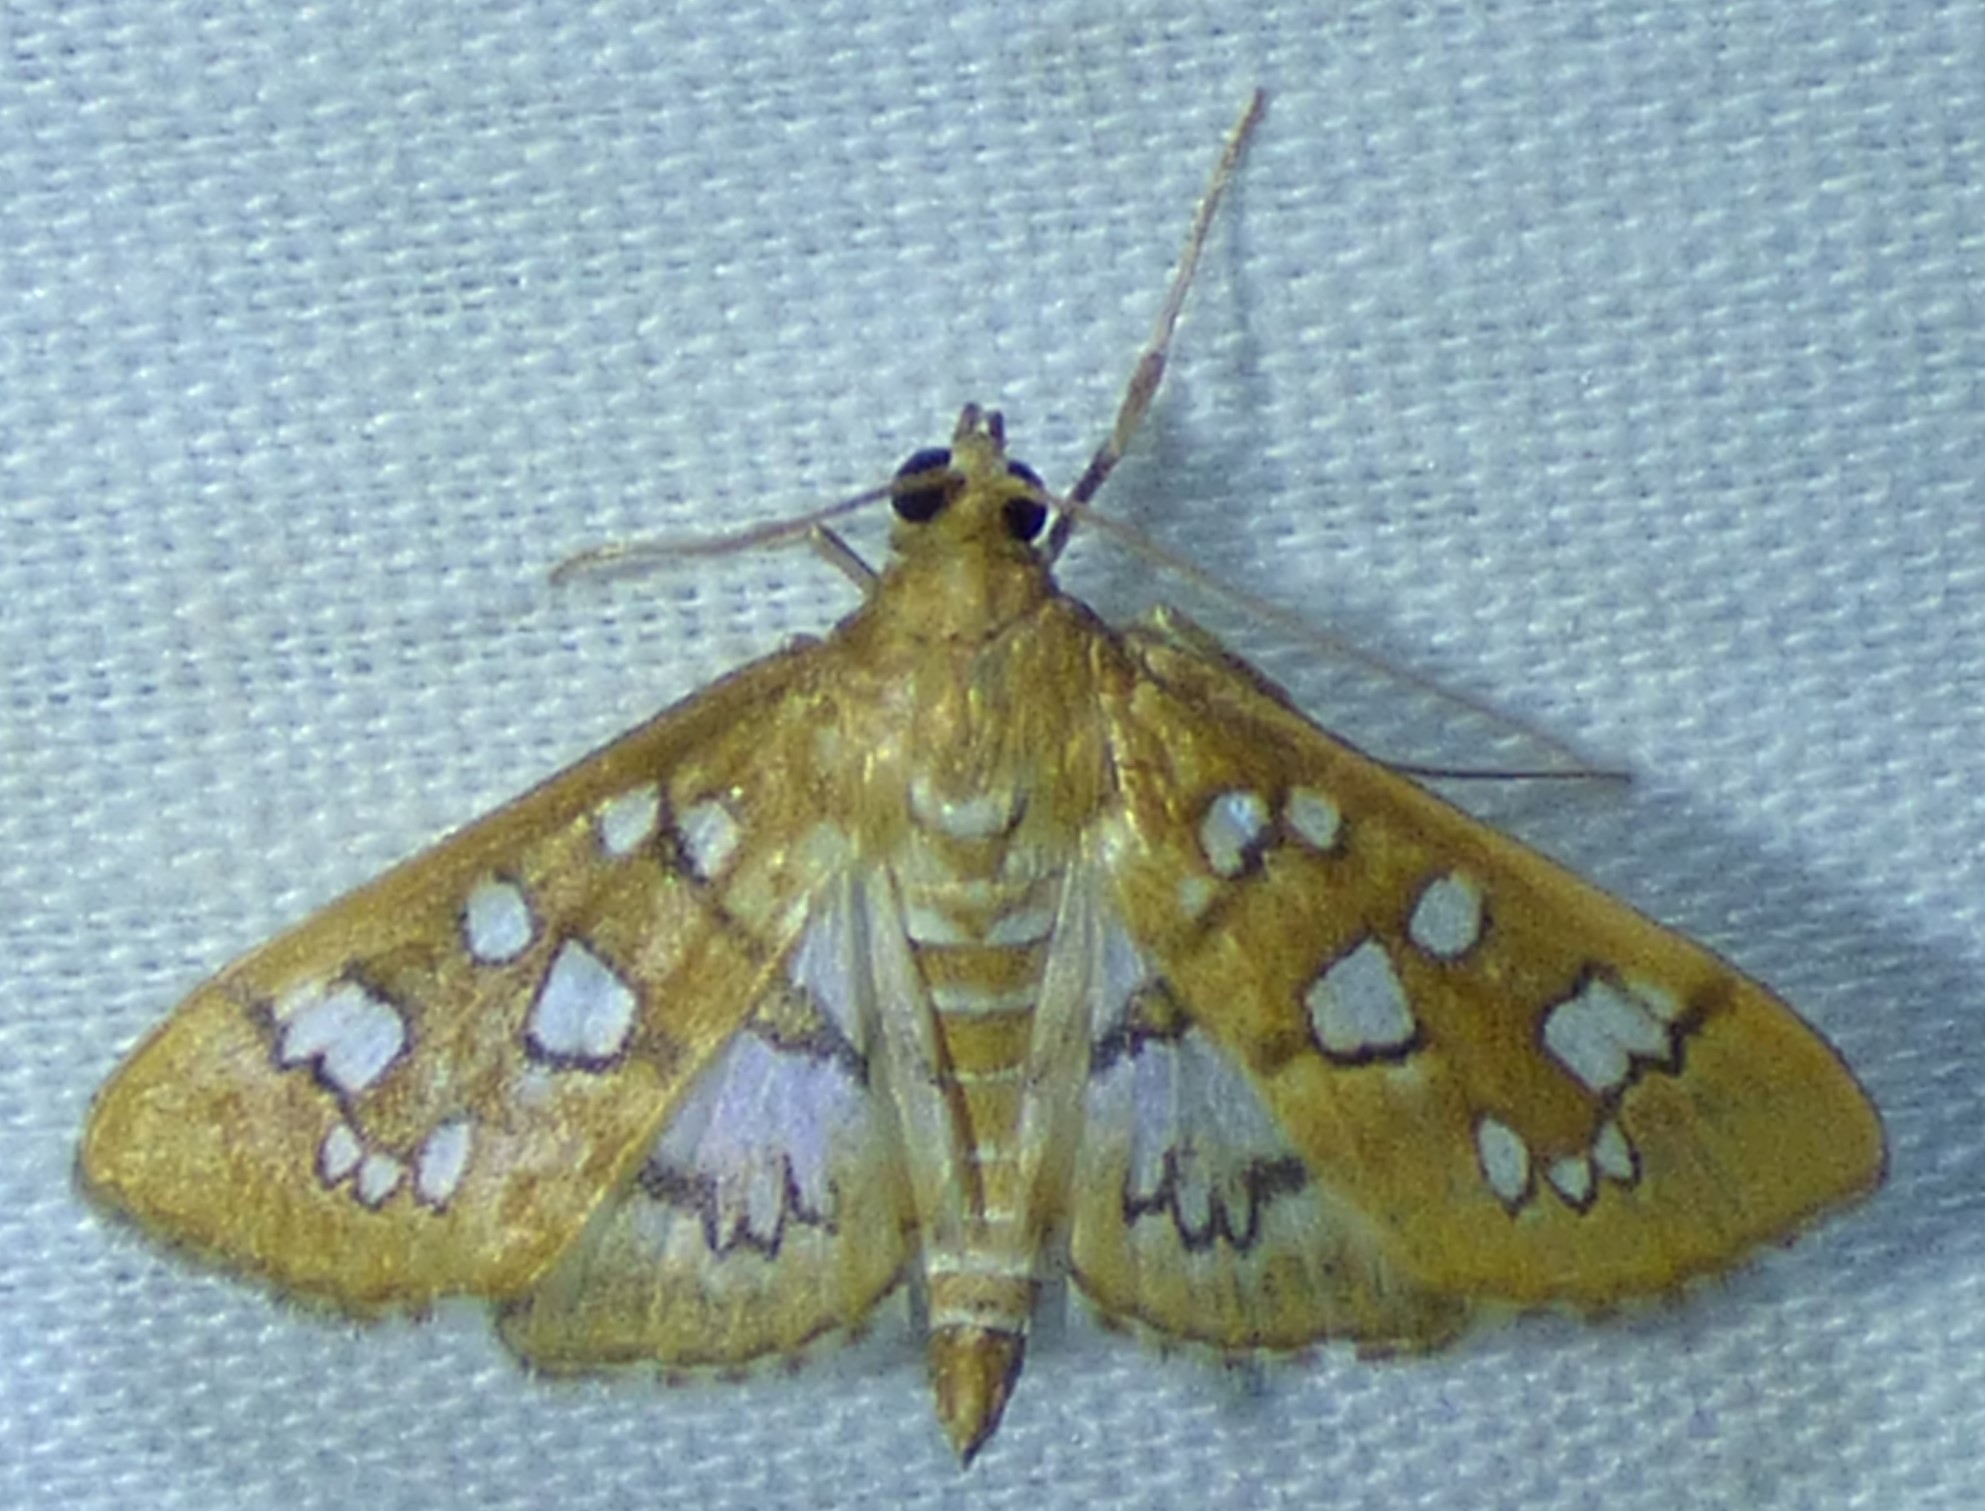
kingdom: Animalia
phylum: Arthropoda
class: Insecta
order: Lepidoptera
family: Crambidae
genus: Samea
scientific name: Samea baccatalis
